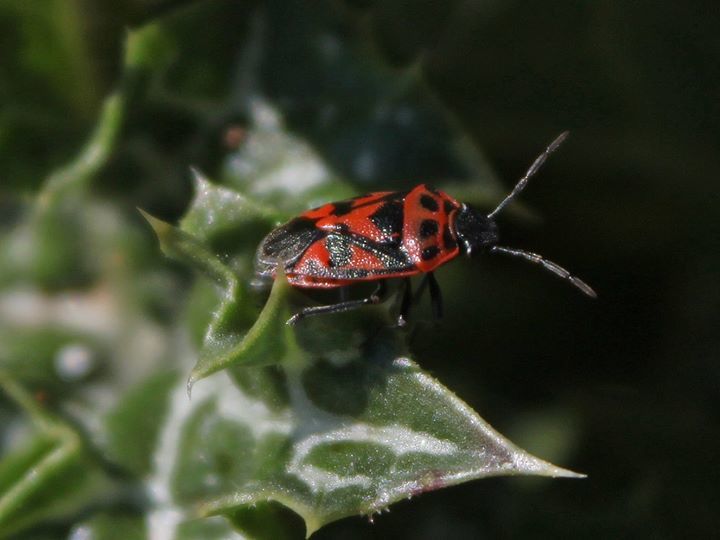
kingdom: Animalia
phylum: Arthropoda
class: Insecta
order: Hemiptera
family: Pentatomidae
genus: Eurydema
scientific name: Eurydema ornata
